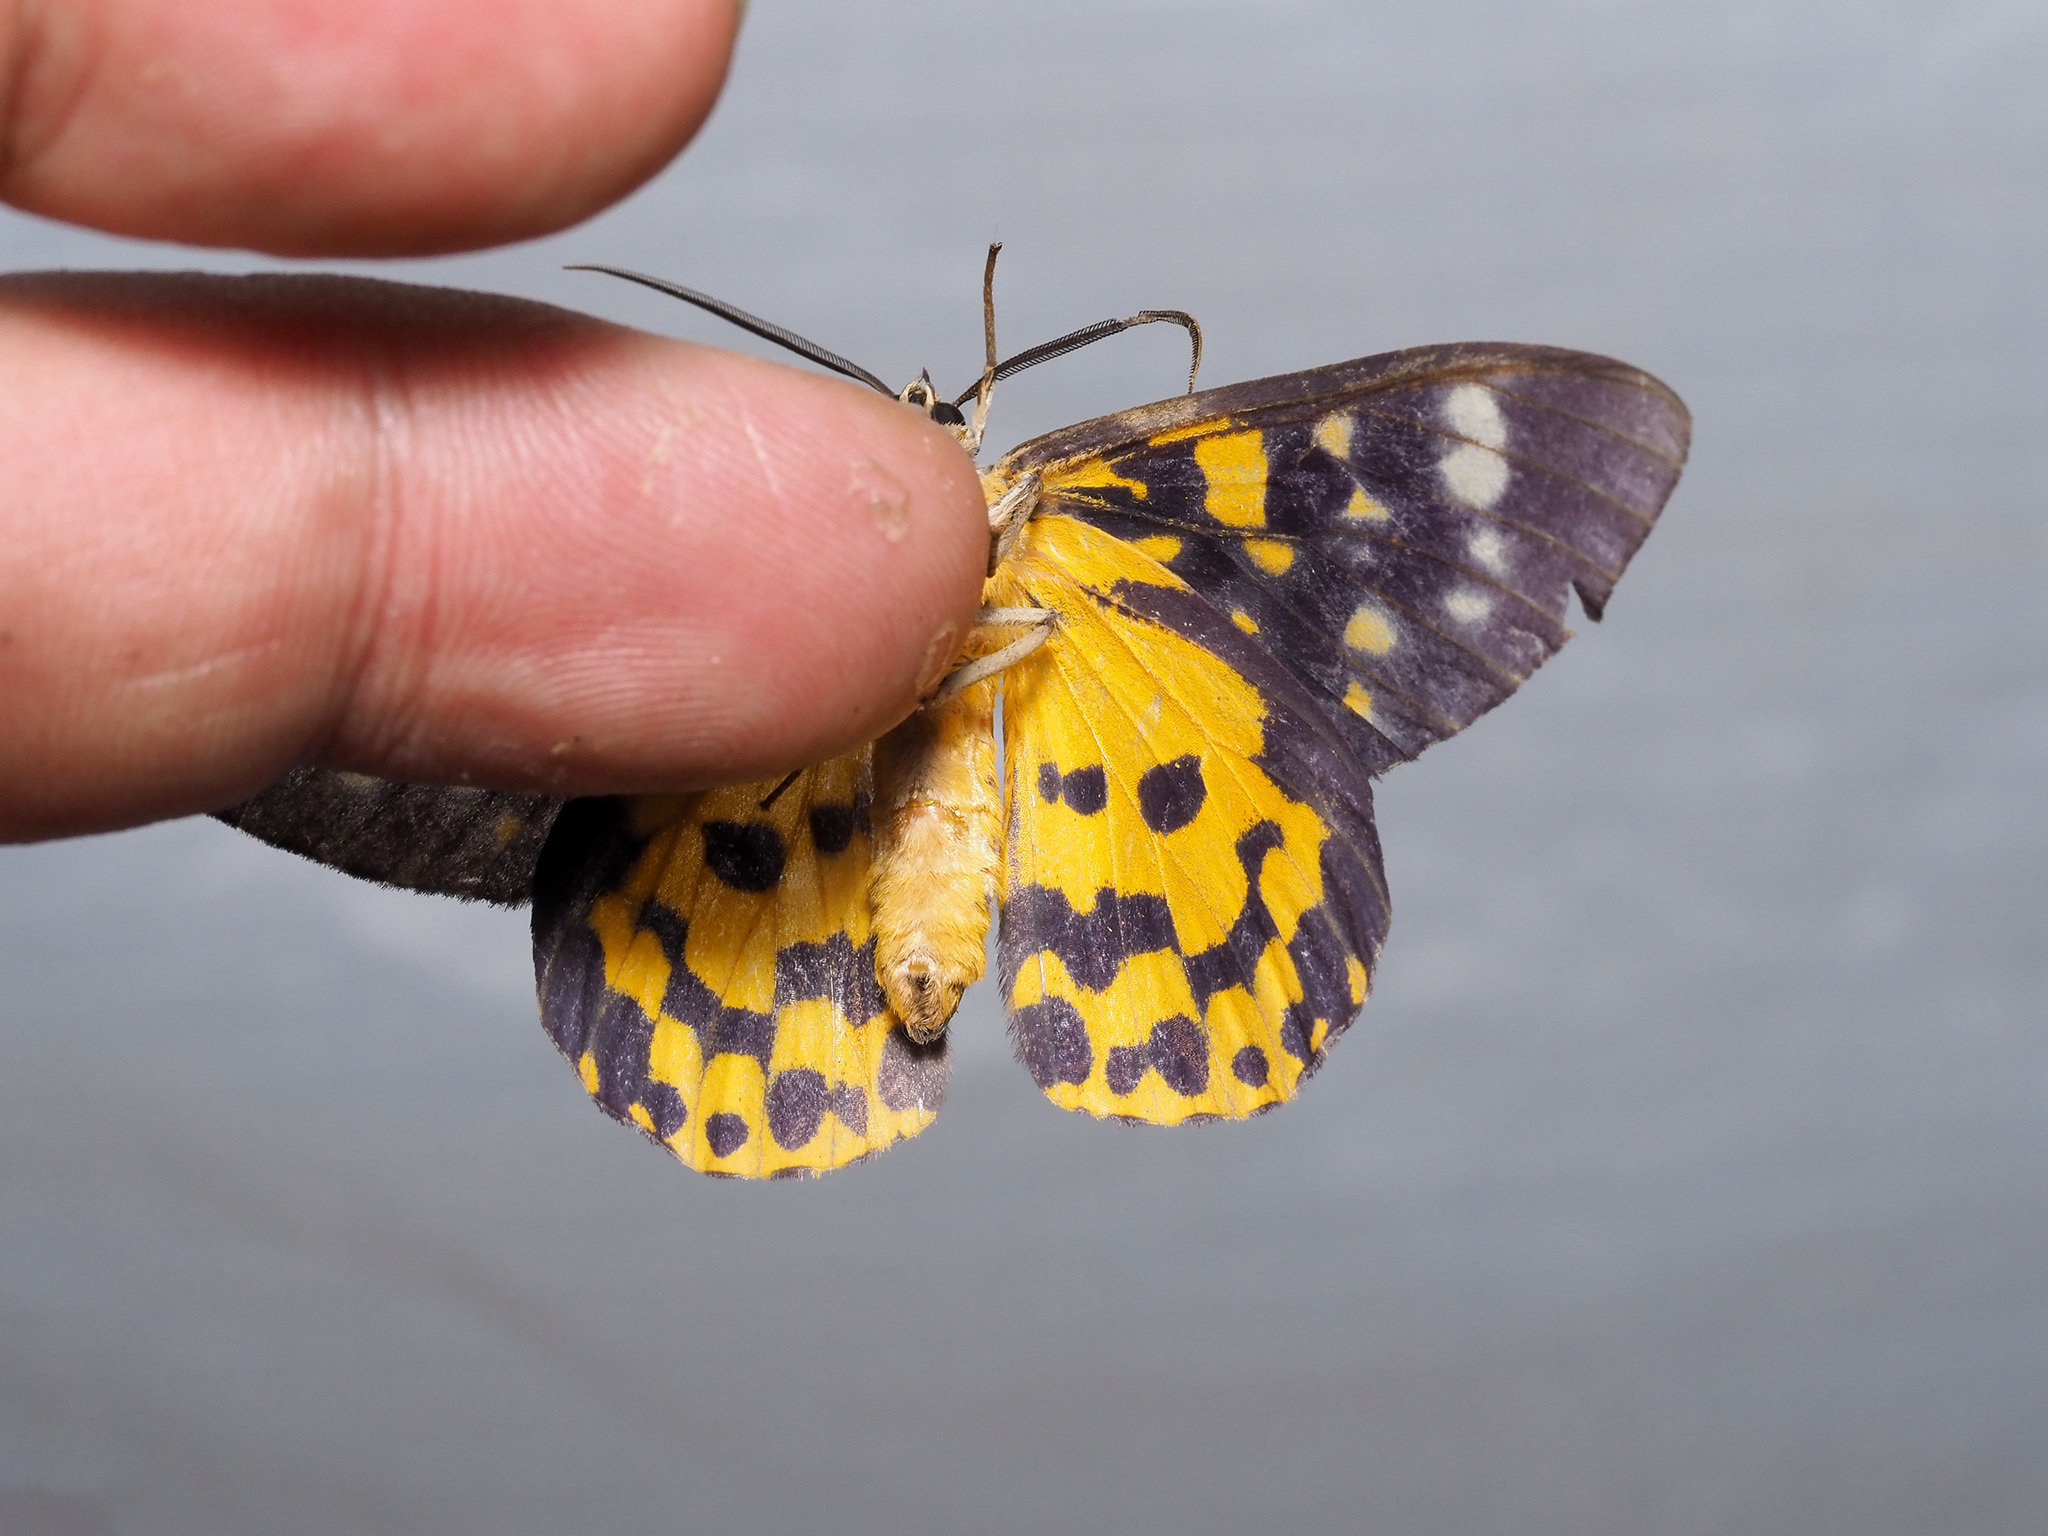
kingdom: Animalia
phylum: Arthropoda
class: Insecta
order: Lepidoptera
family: Geometridae
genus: Dysphania
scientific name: Dysphania bivexillata
